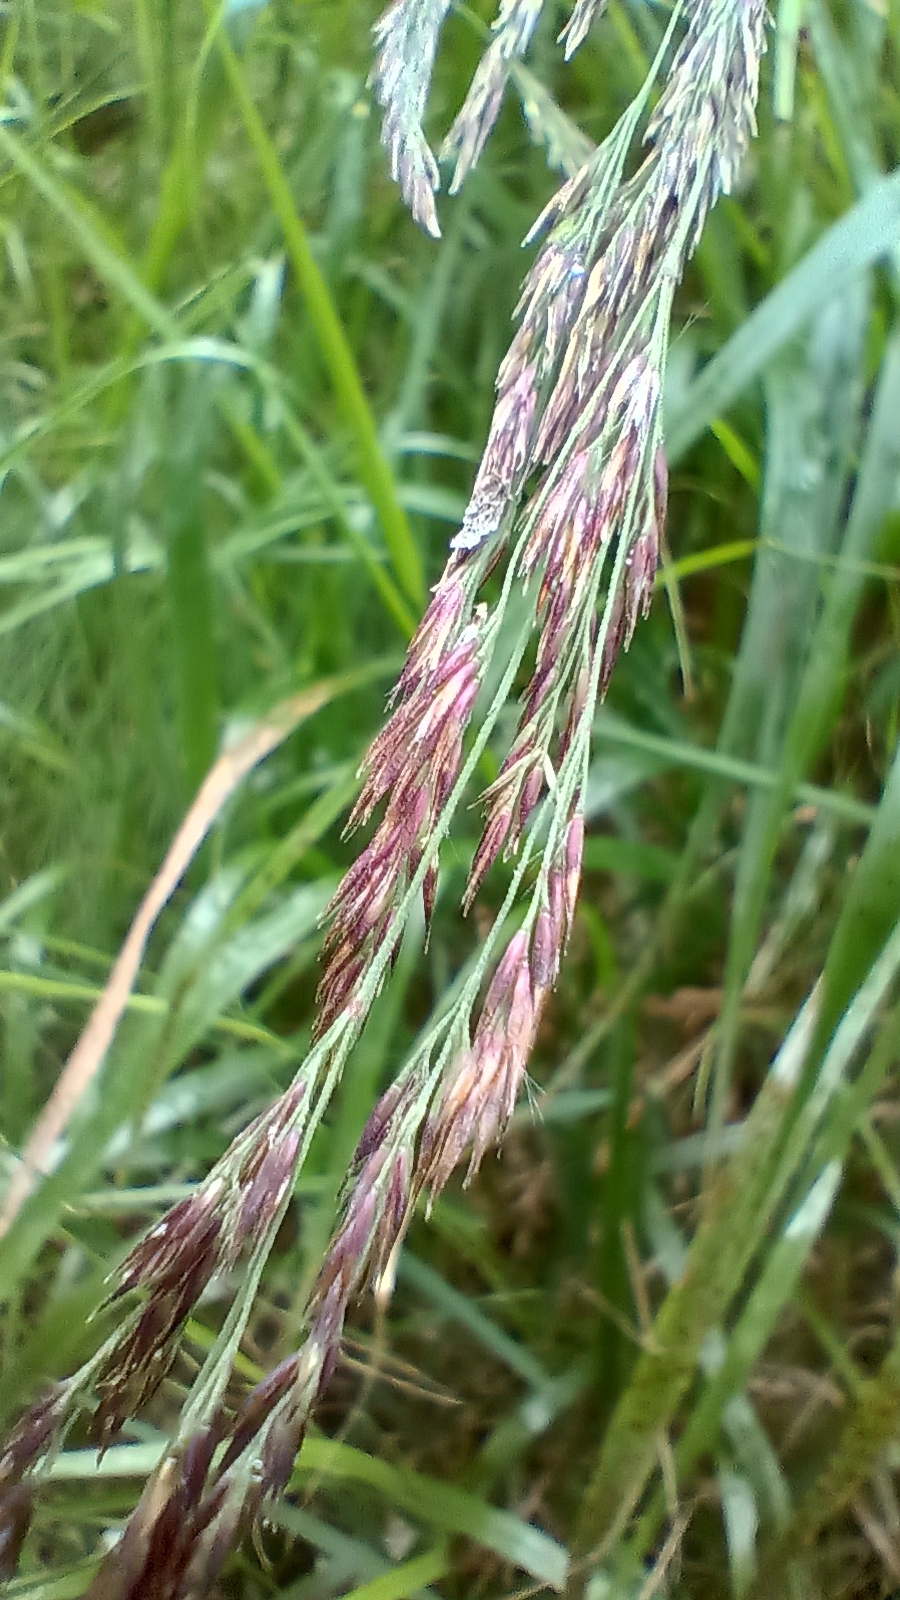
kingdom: Plantae
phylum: Tracheophyta
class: Liliopsida
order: Poales
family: Poaceae
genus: Calamagrostis
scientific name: Calamagrostis villosa
